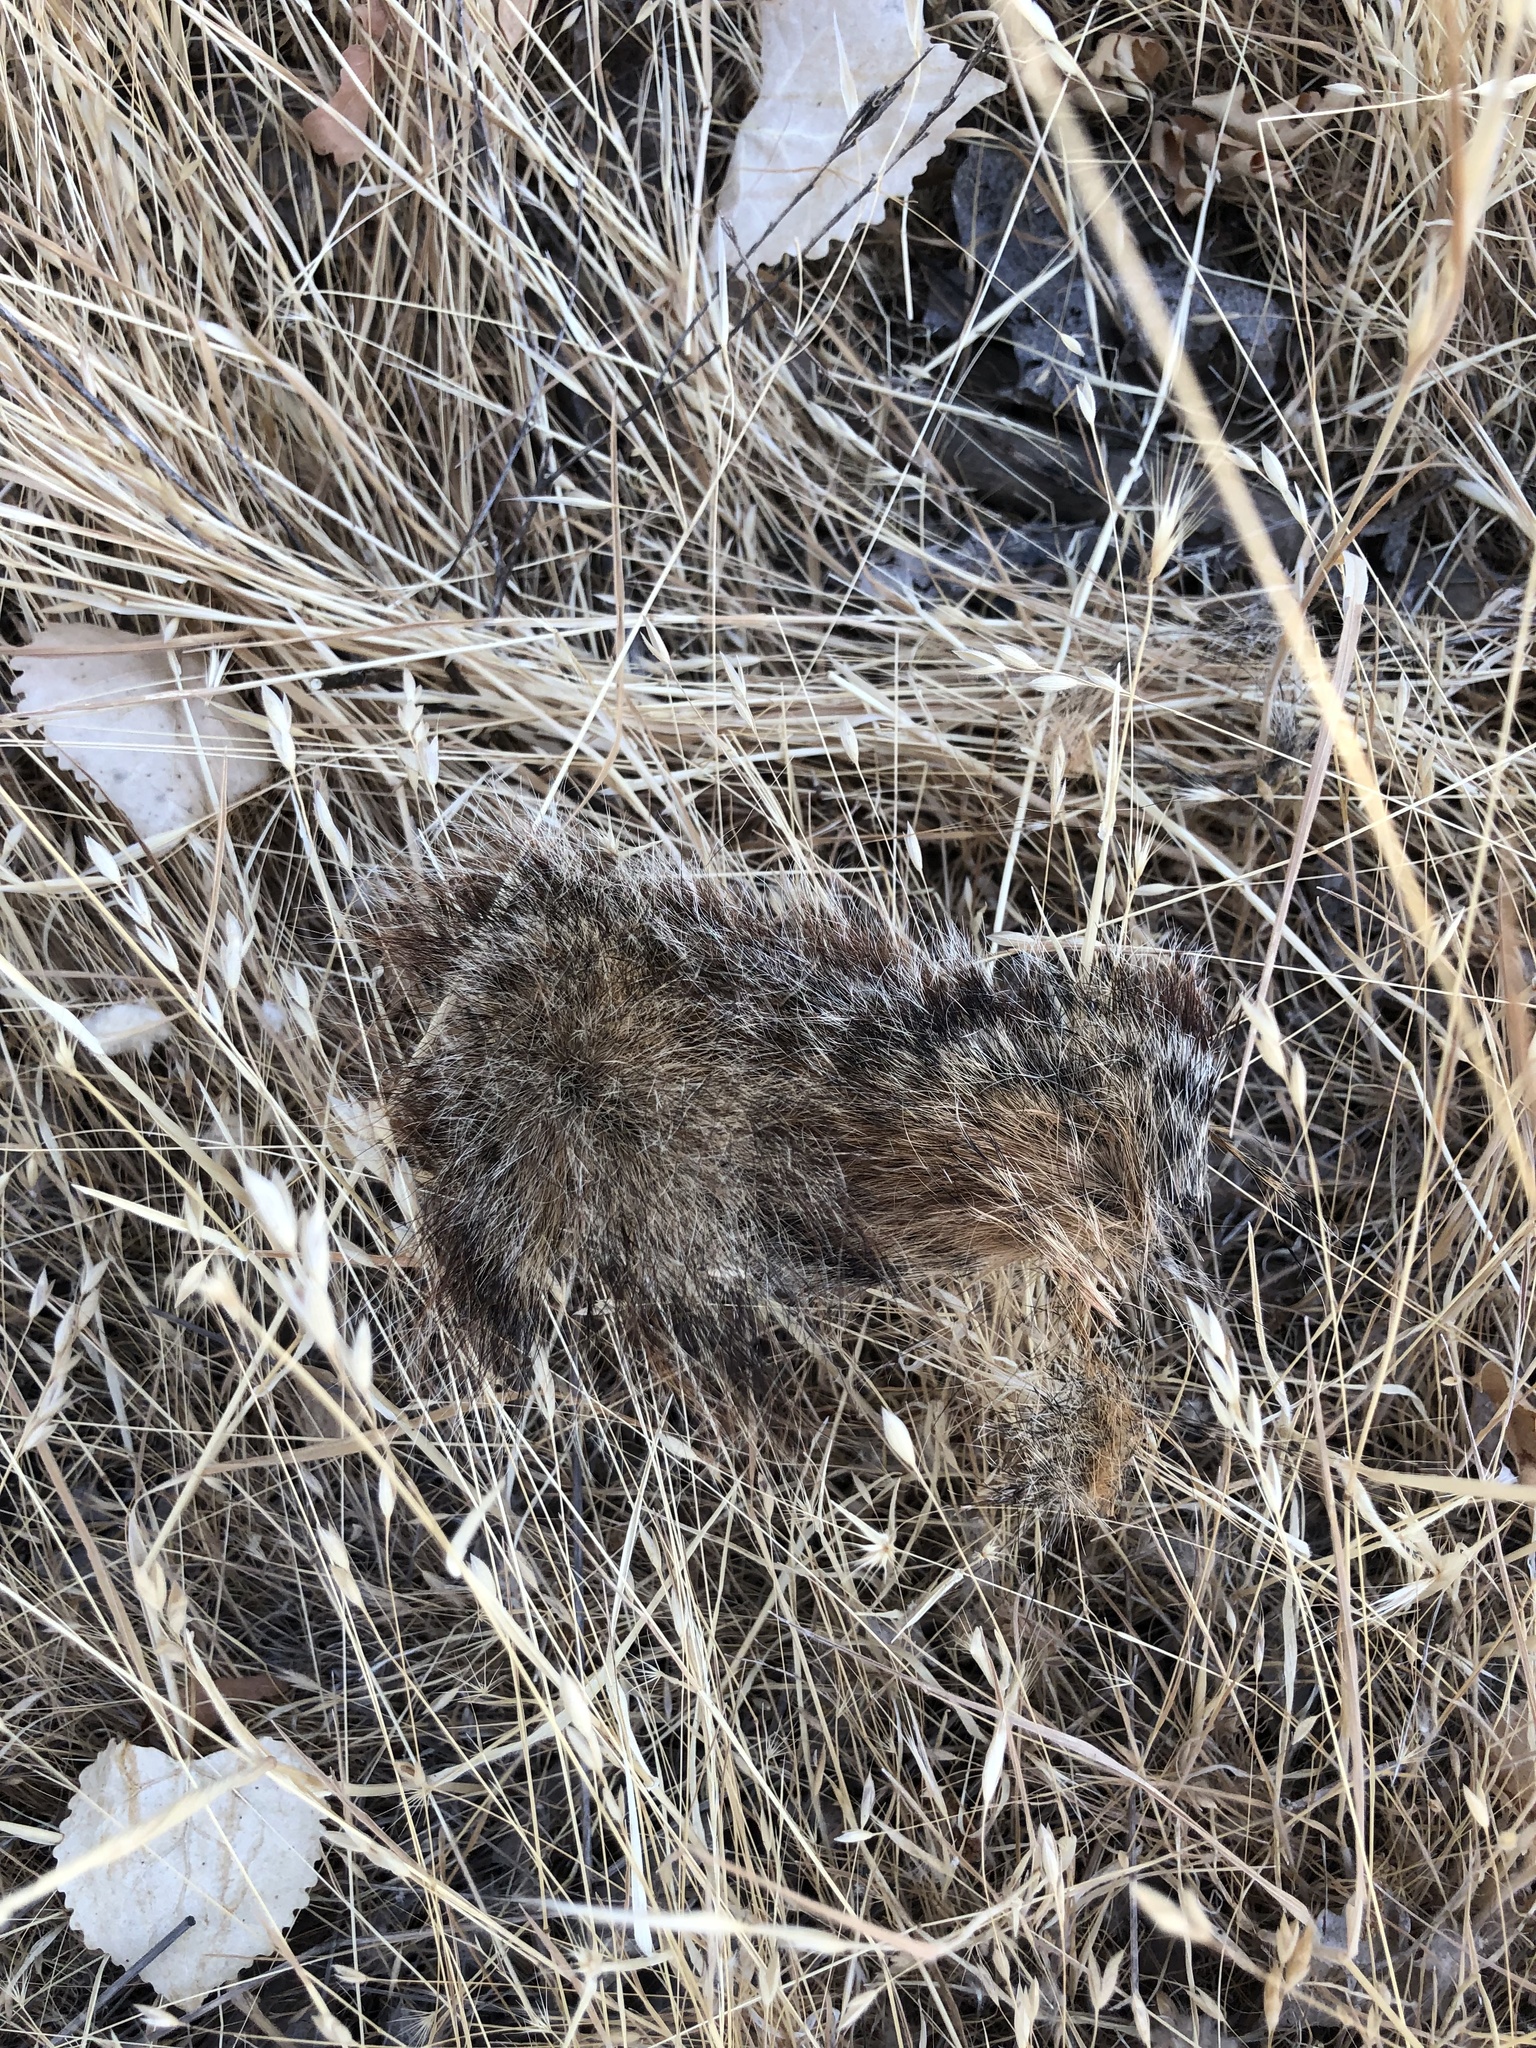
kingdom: Animalia
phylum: Chordata
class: Mammalia
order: Rodentia
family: Sciuridae
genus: Sciurus
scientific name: Sciurus niger
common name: Fox squirrel
